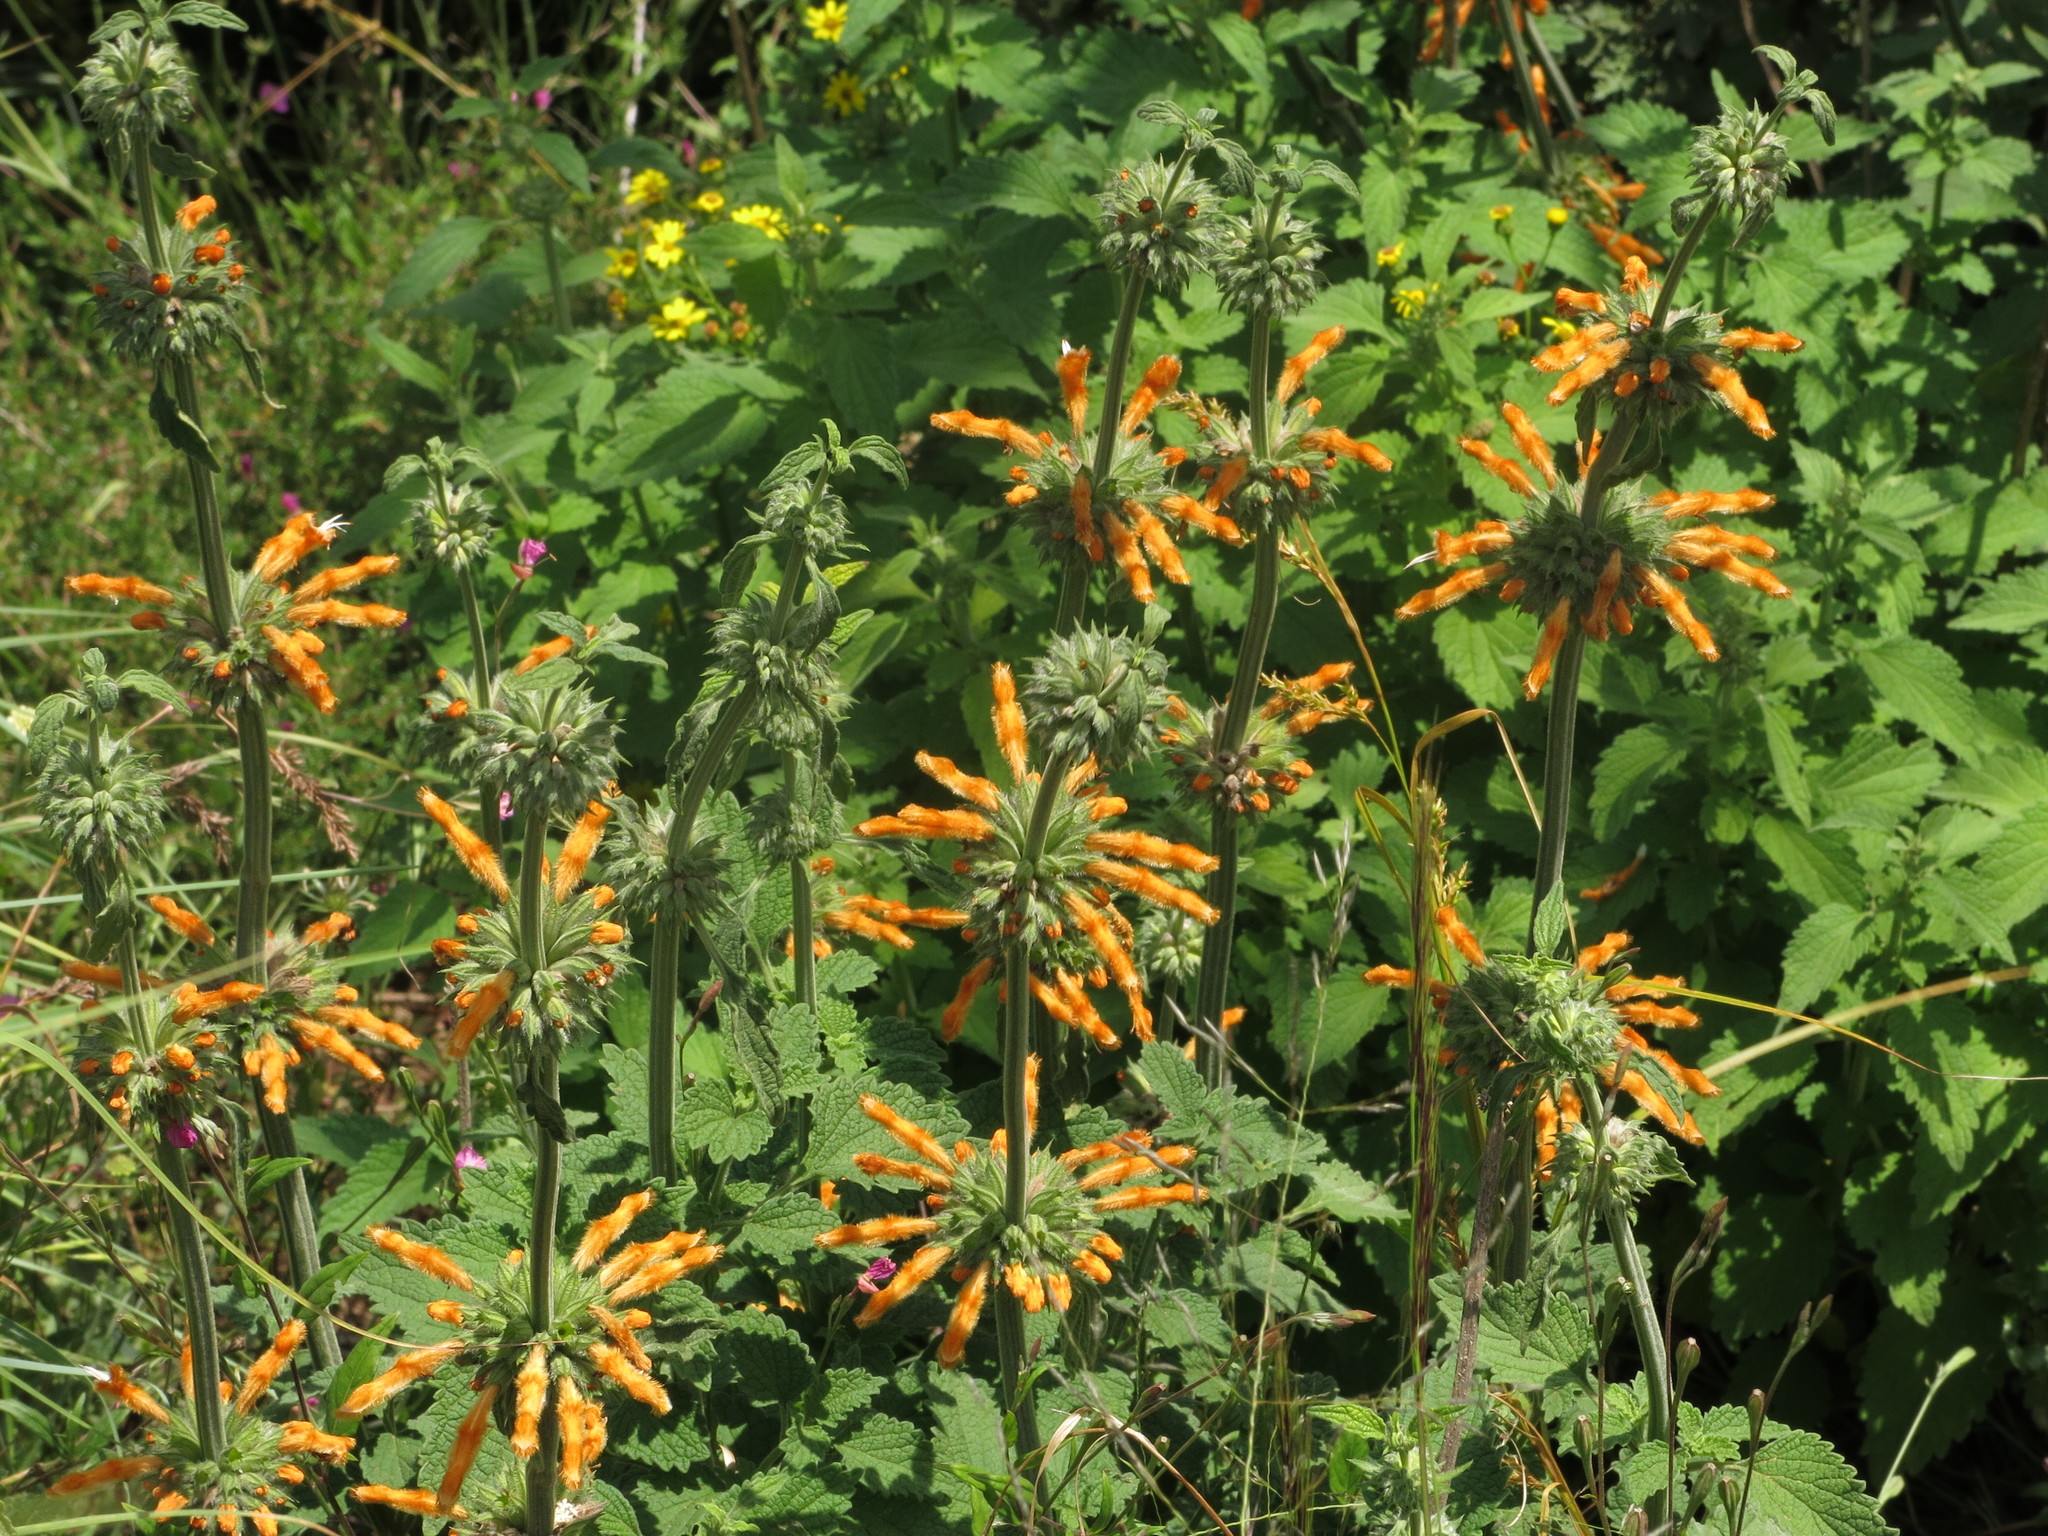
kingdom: Plantae
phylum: Tracheophyta
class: Magnoliopsida
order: Lamiales
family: Lamiaceae
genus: Leonotis
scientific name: Leonotis ocymifolia
